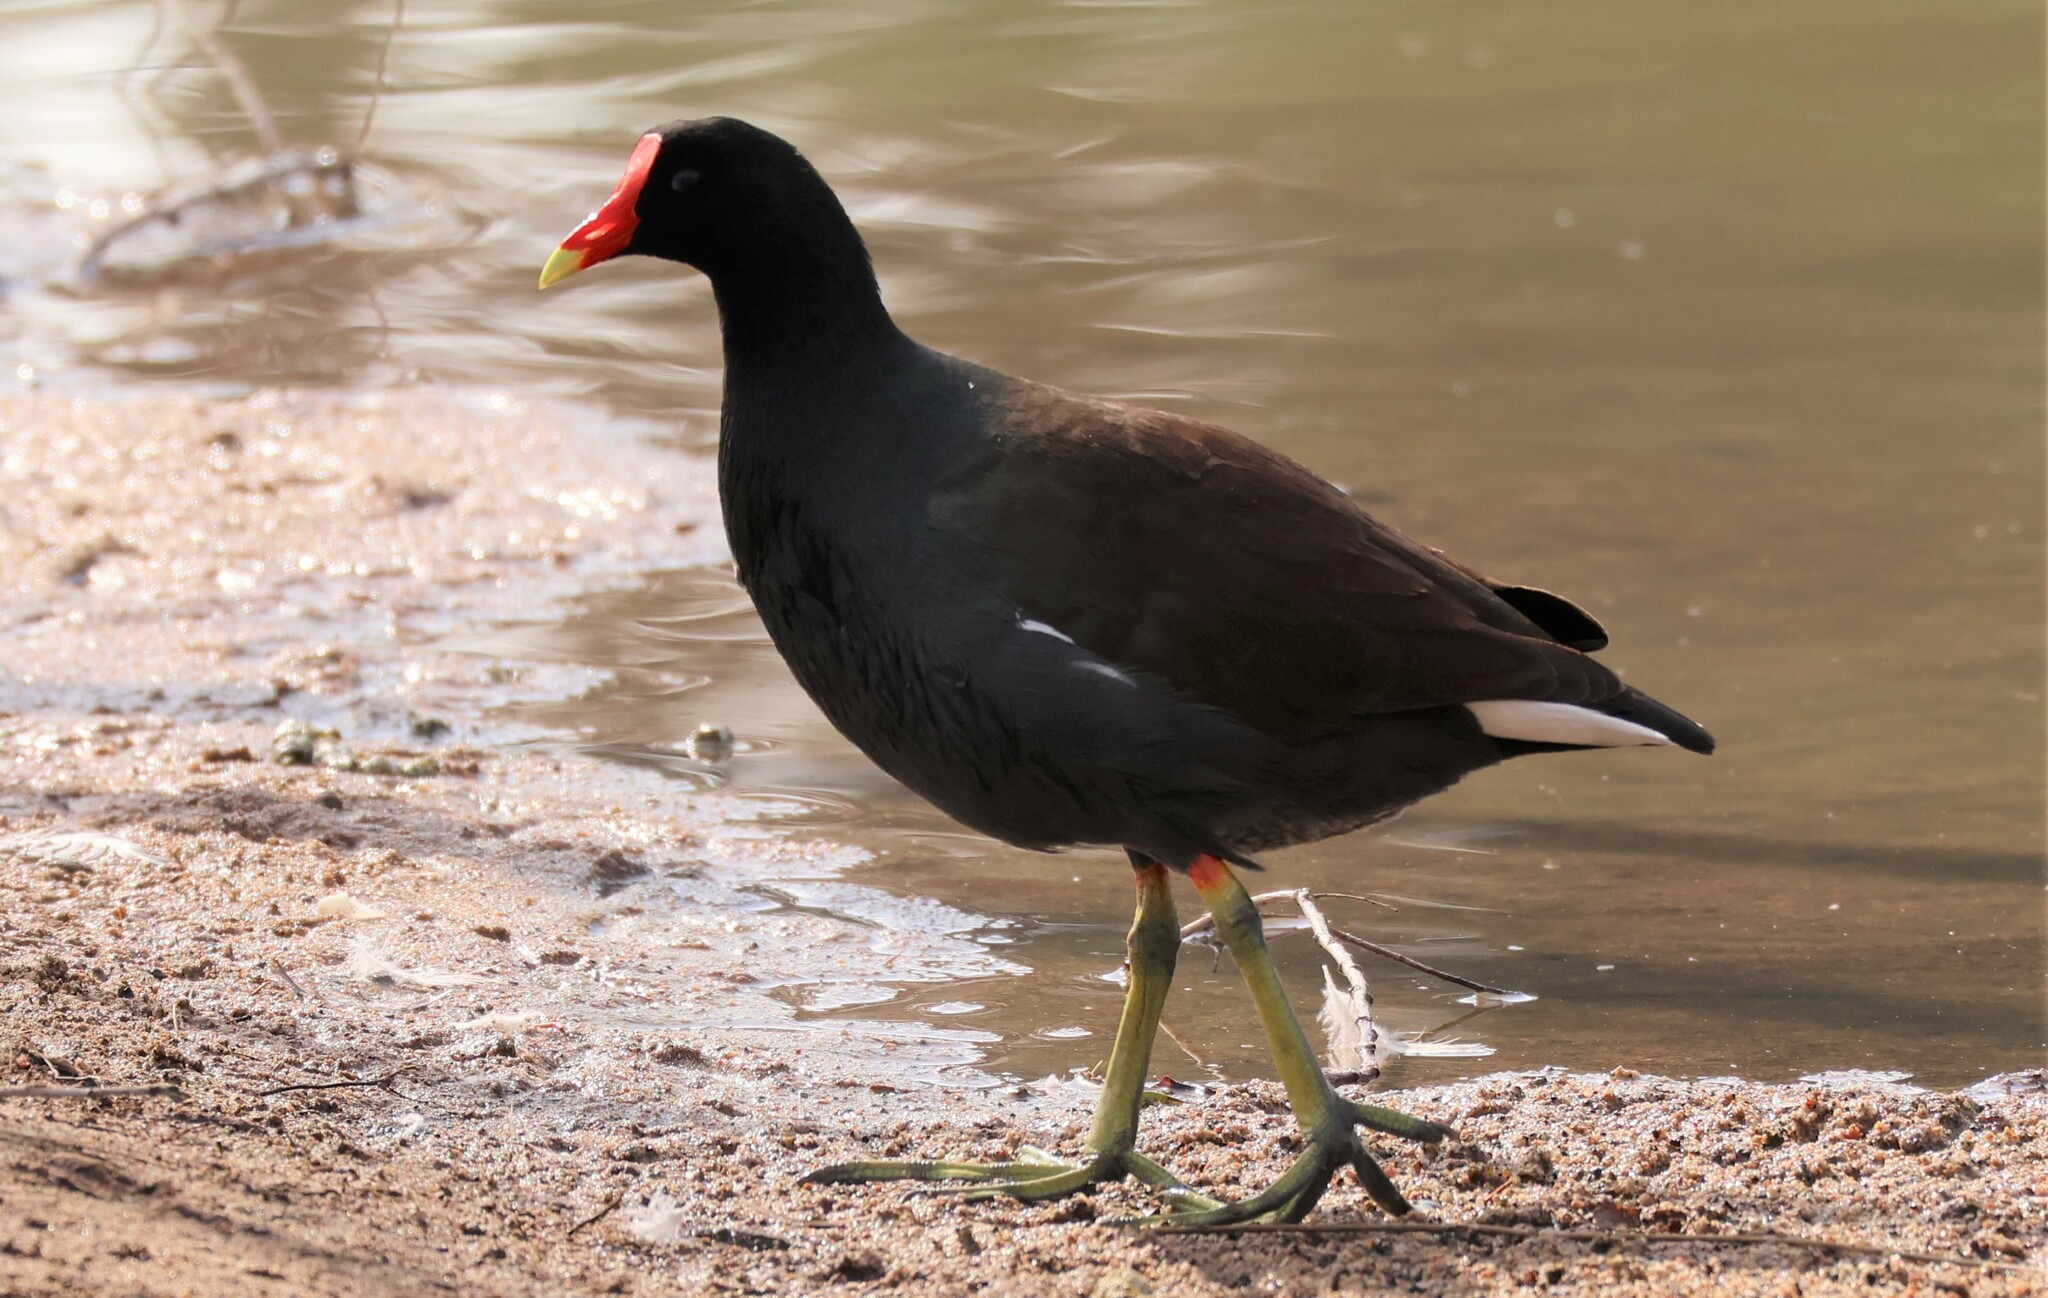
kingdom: Animalia
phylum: Chordata
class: Aves
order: Gruiformes
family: Rallidae
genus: Gallinula
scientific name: Gallinula chloropus
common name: Common moorhen
